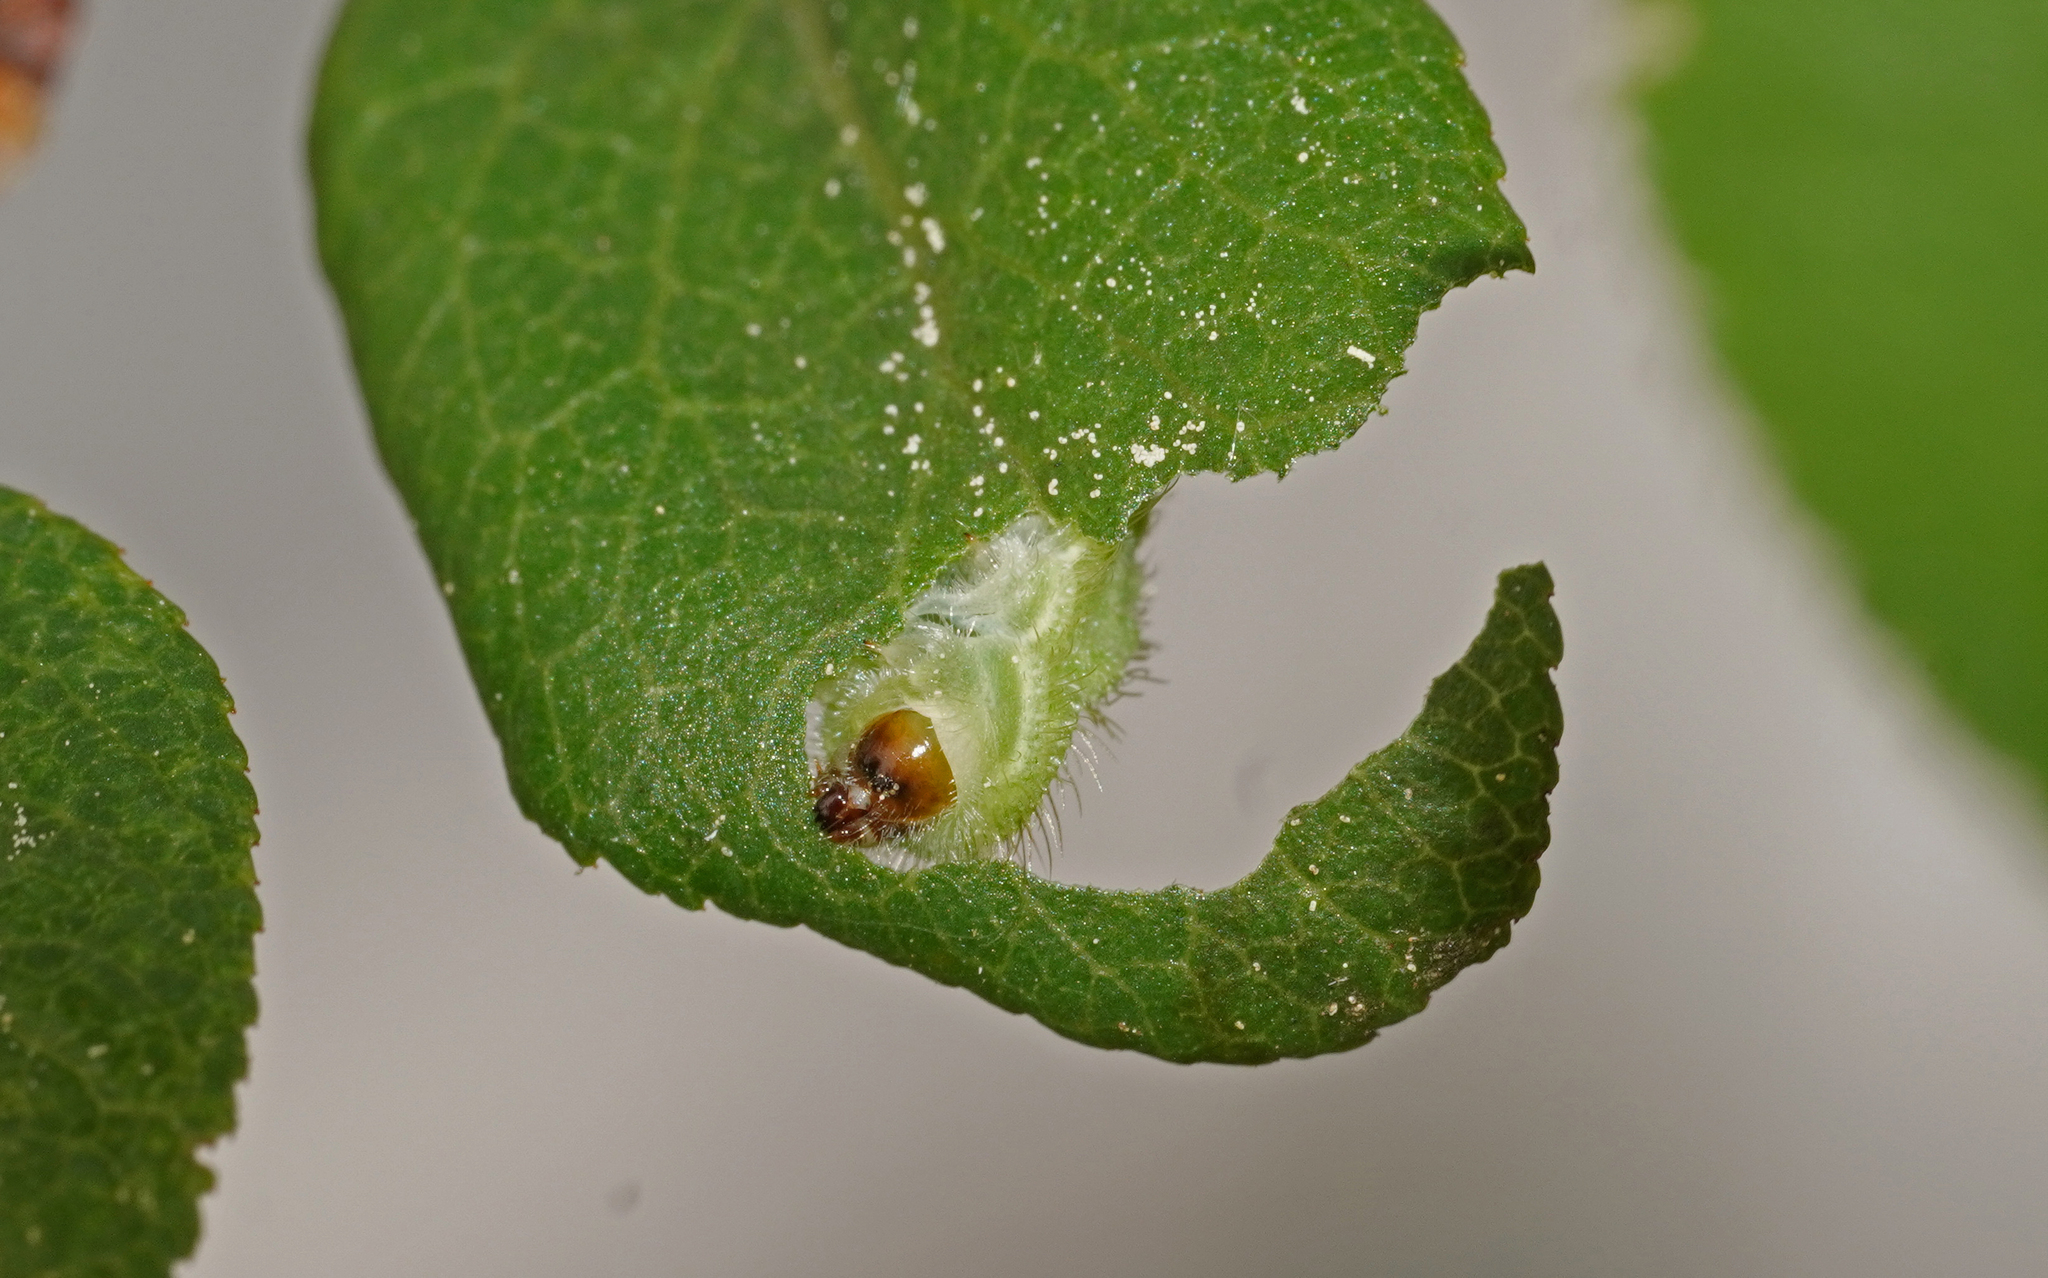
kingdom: Animalia
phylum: Arthropoda
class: Insecta
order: Lepidoptera
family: Lycaenidae
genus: Thecla
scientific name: Thecla betulae
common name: Brown hairstreak
